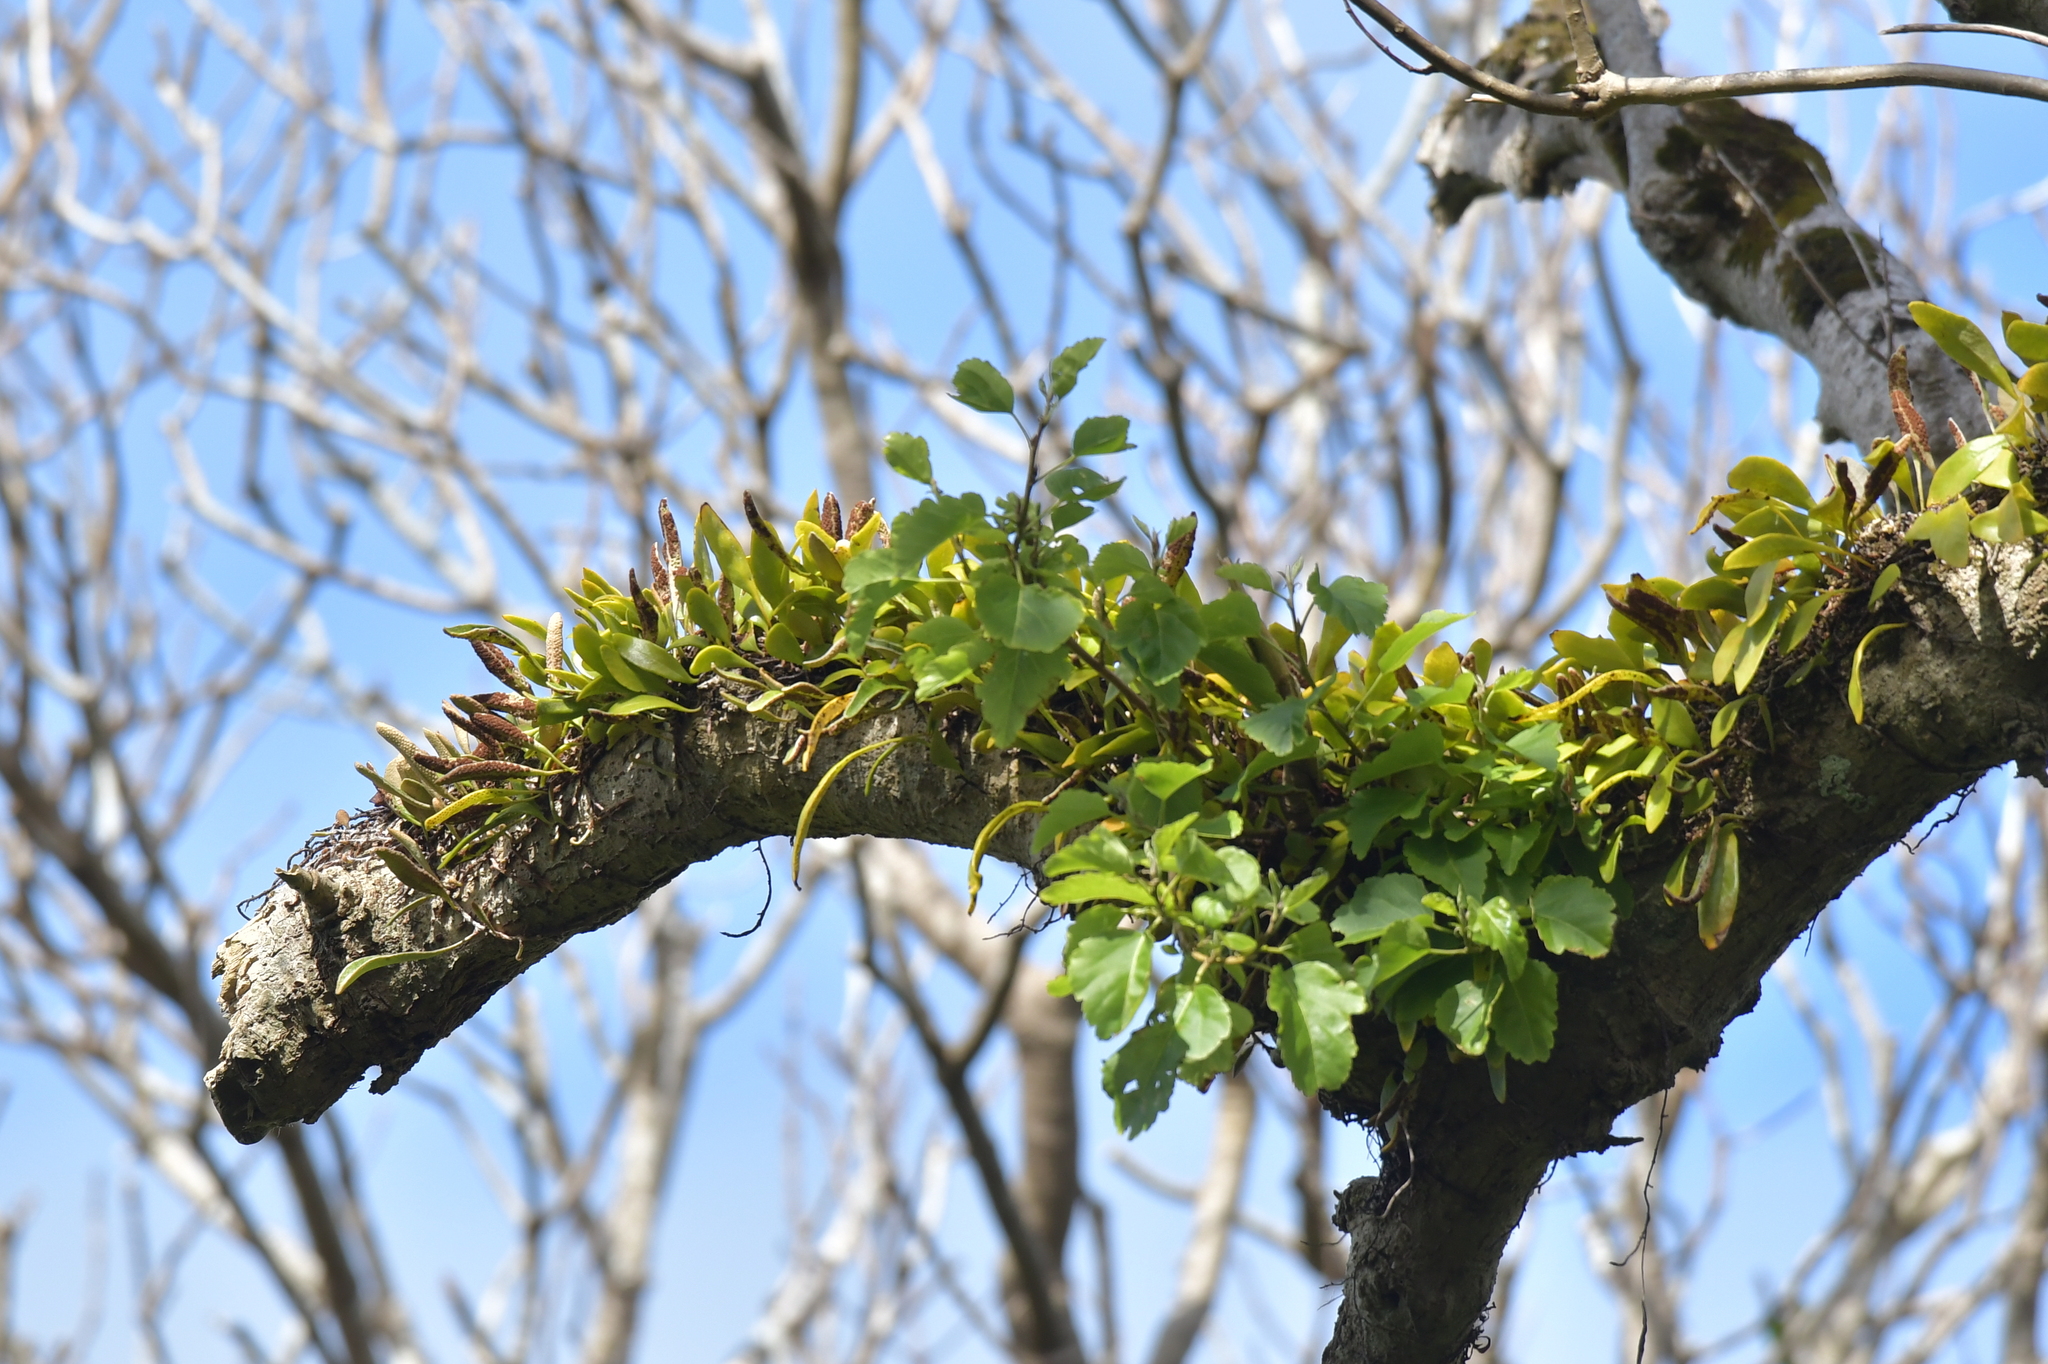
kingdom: Plantae
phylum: Tracheophyta
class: Polypodiopsida
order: Polypodiales
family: Polypodiaceae
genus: Pyrrosia
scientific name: Pyrrosia eleagnifolia
